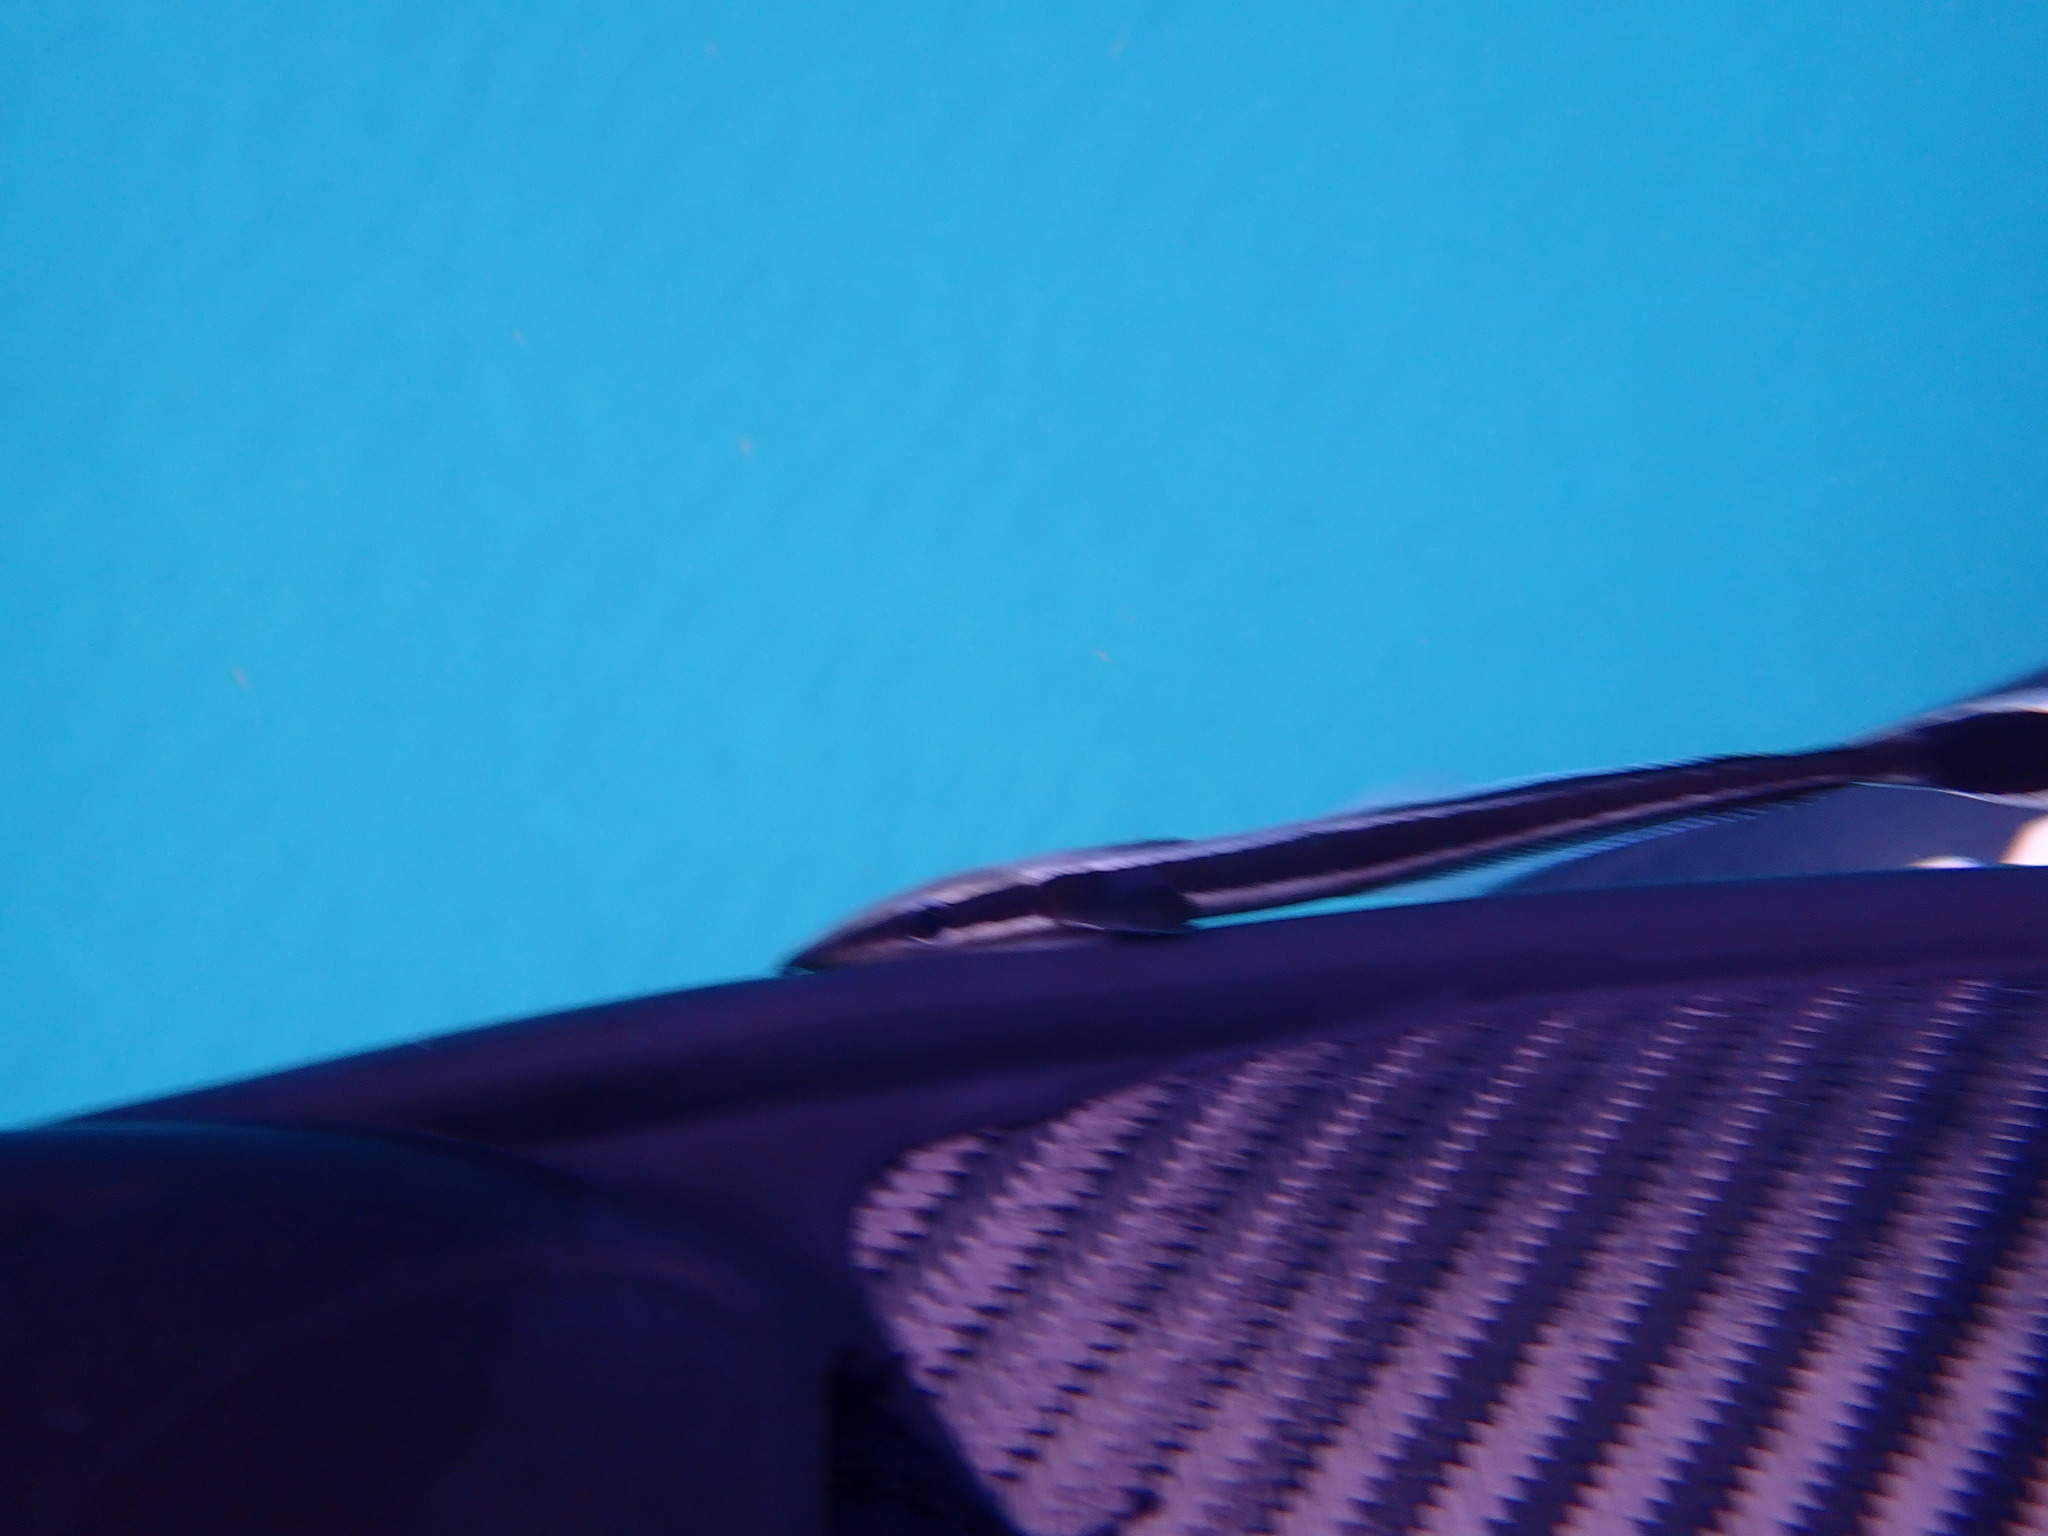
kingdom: Animalia
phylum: Chordata
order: Perciformes
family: Echeneidae
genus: Echeneis
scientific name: Echeneis naucrates
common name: Sharksucker
